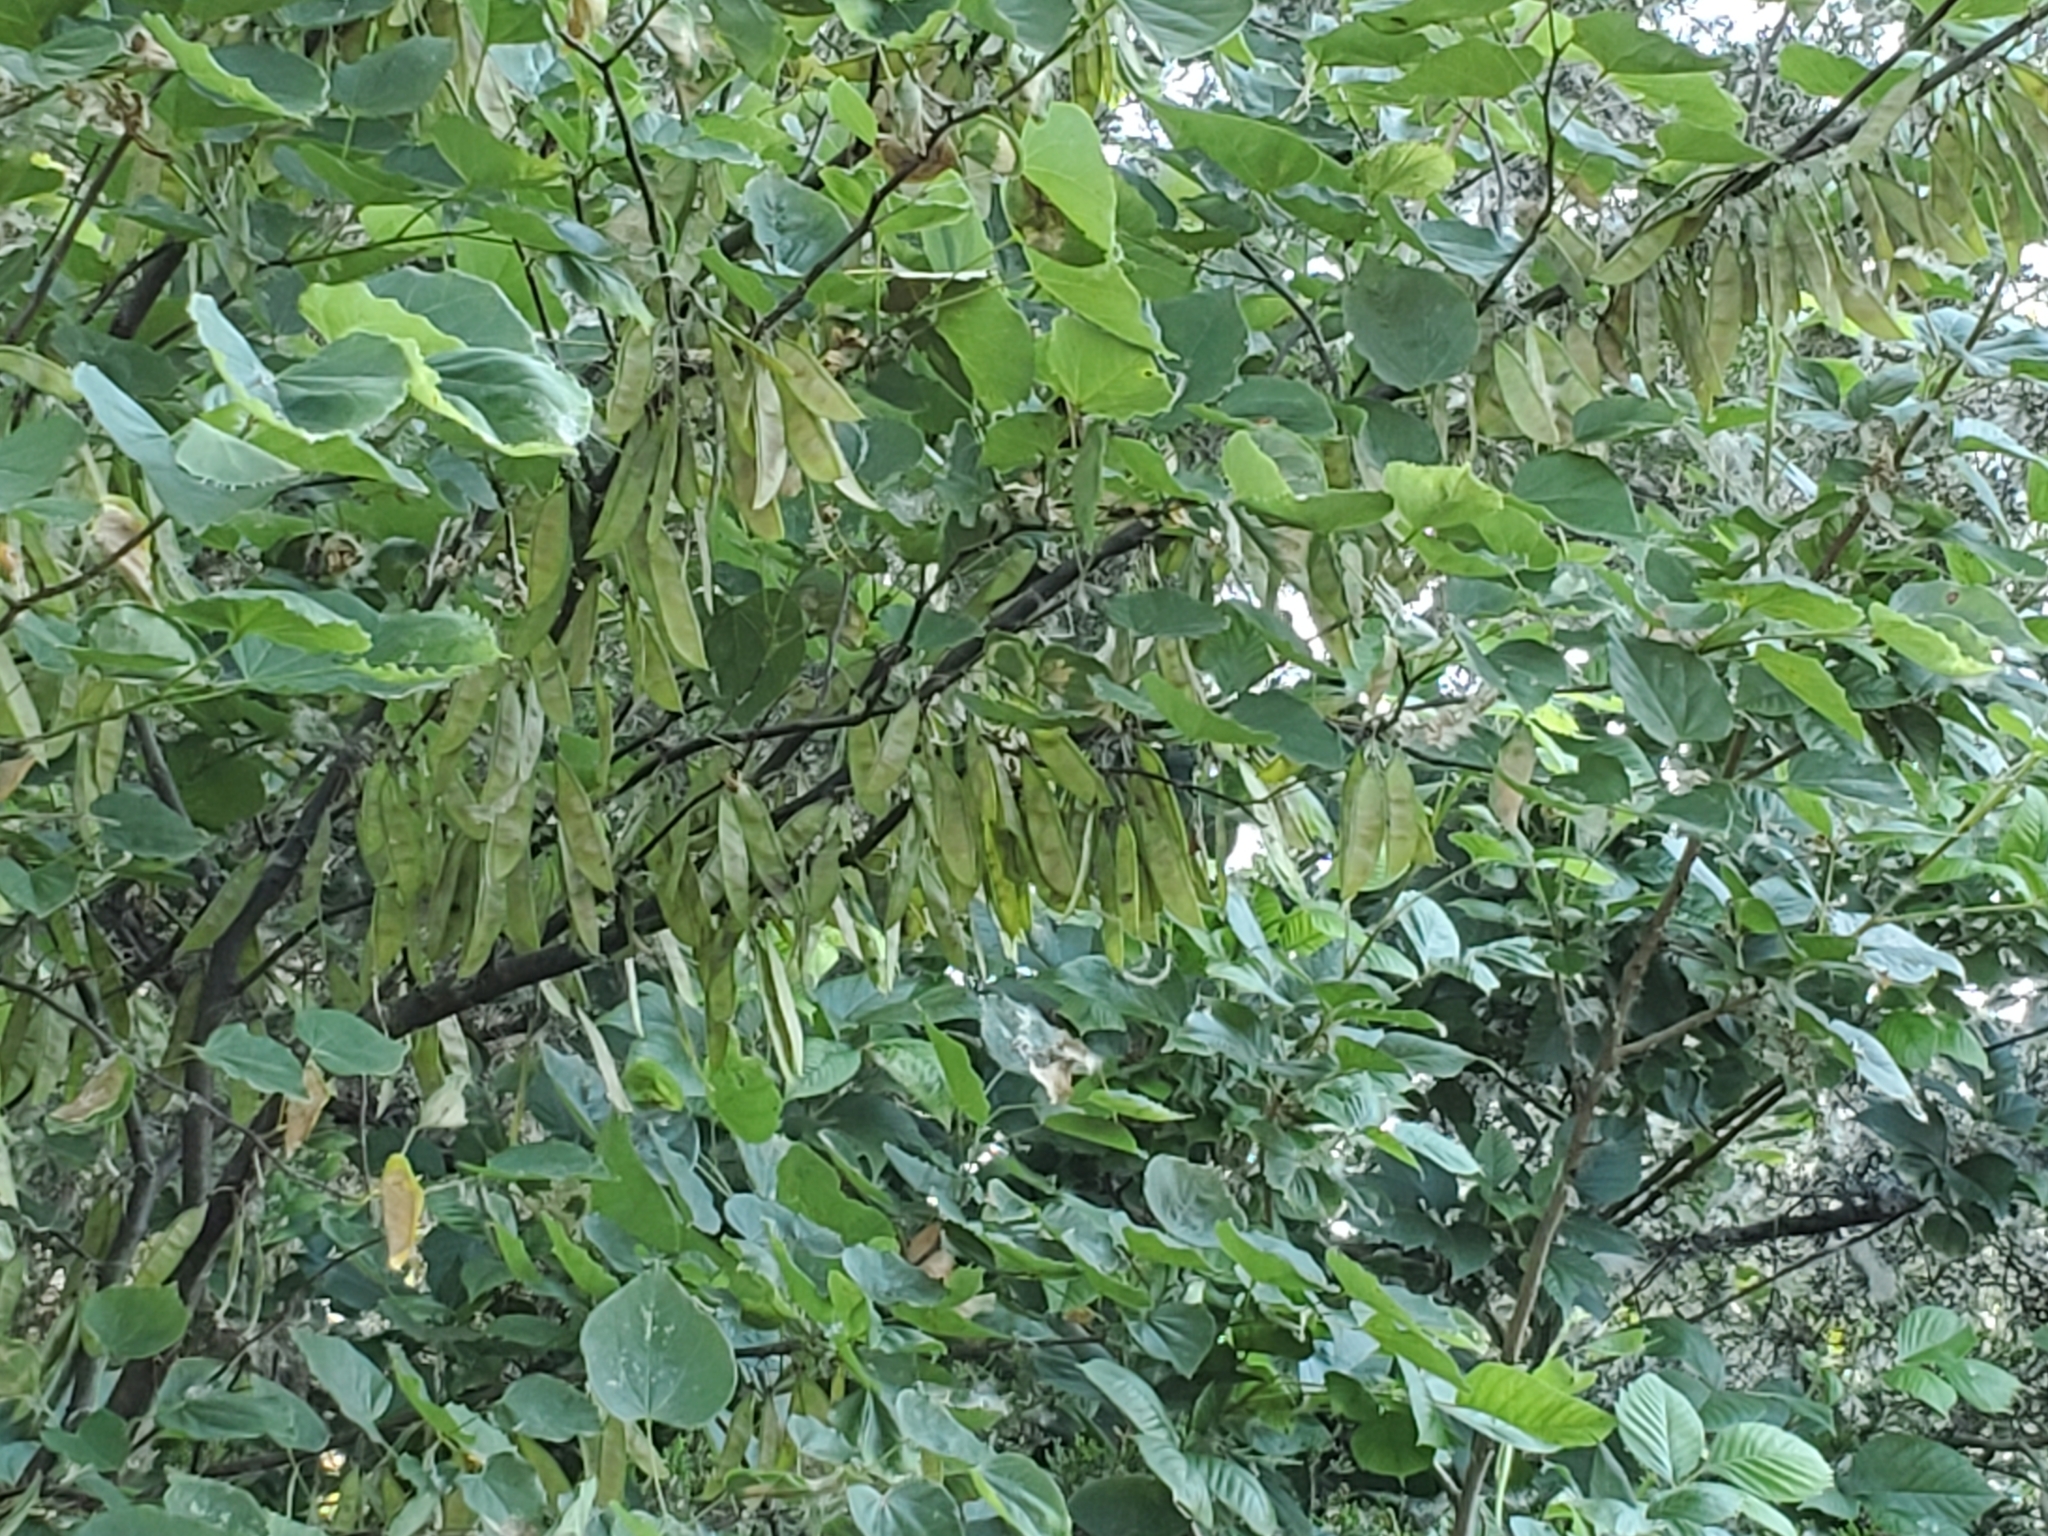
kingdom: Plantae
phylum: Tracheophyta
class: Magnoliopsida
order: Fabales
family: Fabaceae
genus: Cercis
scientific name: Cercis canadensis
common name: Eastern redbud
